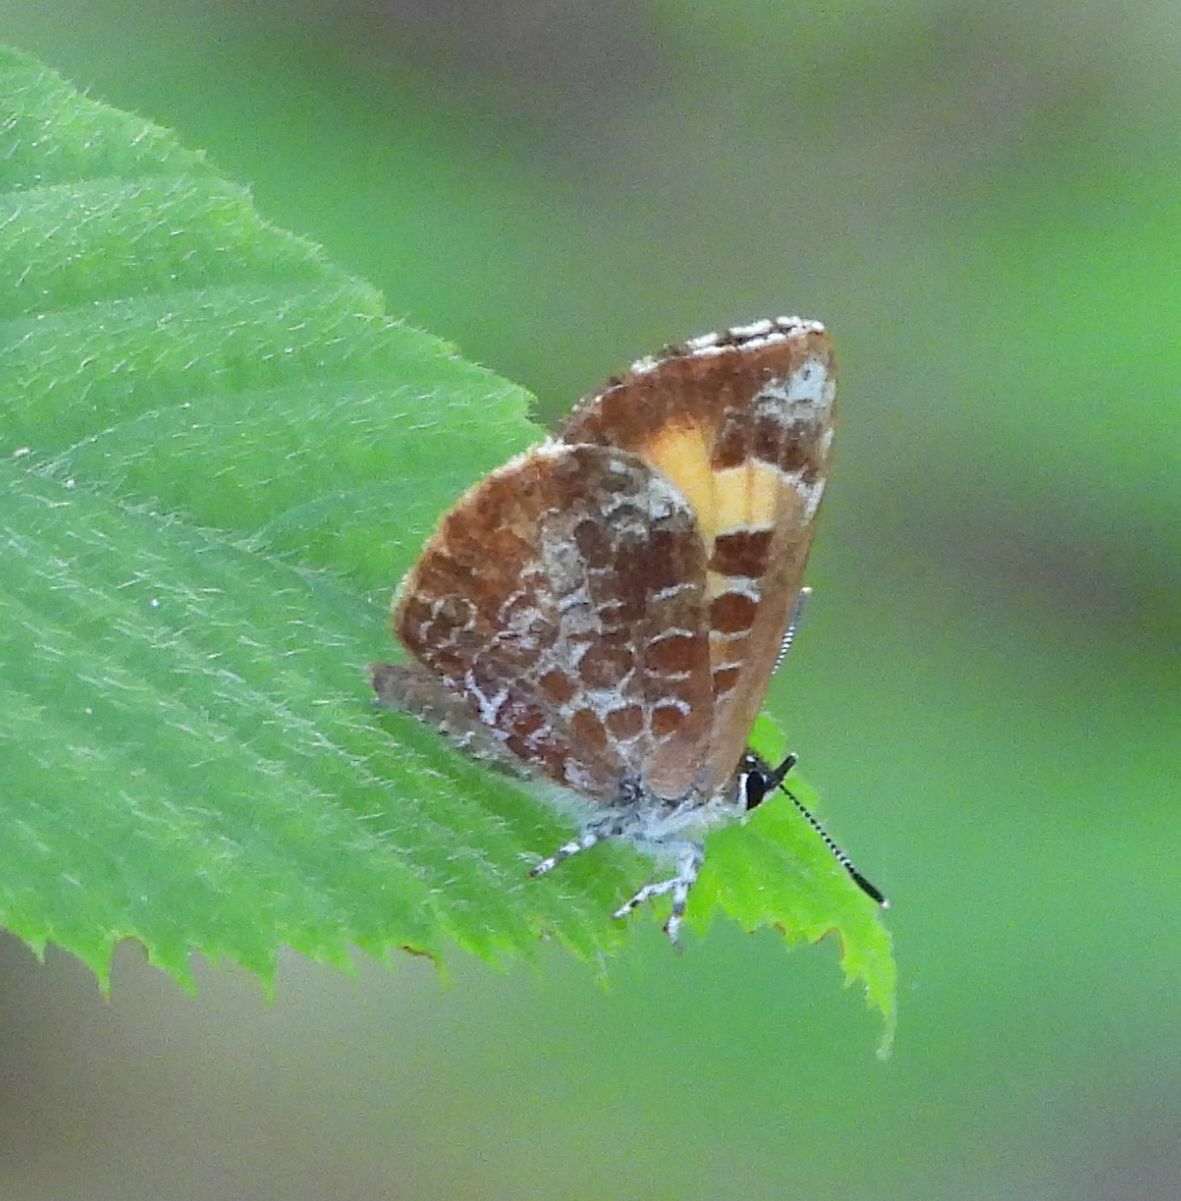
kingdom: Animalia
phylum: Arthropoda
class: Insecta
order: Lepidoptera
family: Lycaenidae
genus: Feniseca
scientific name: Feniseca tarquinius
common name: Harvester
